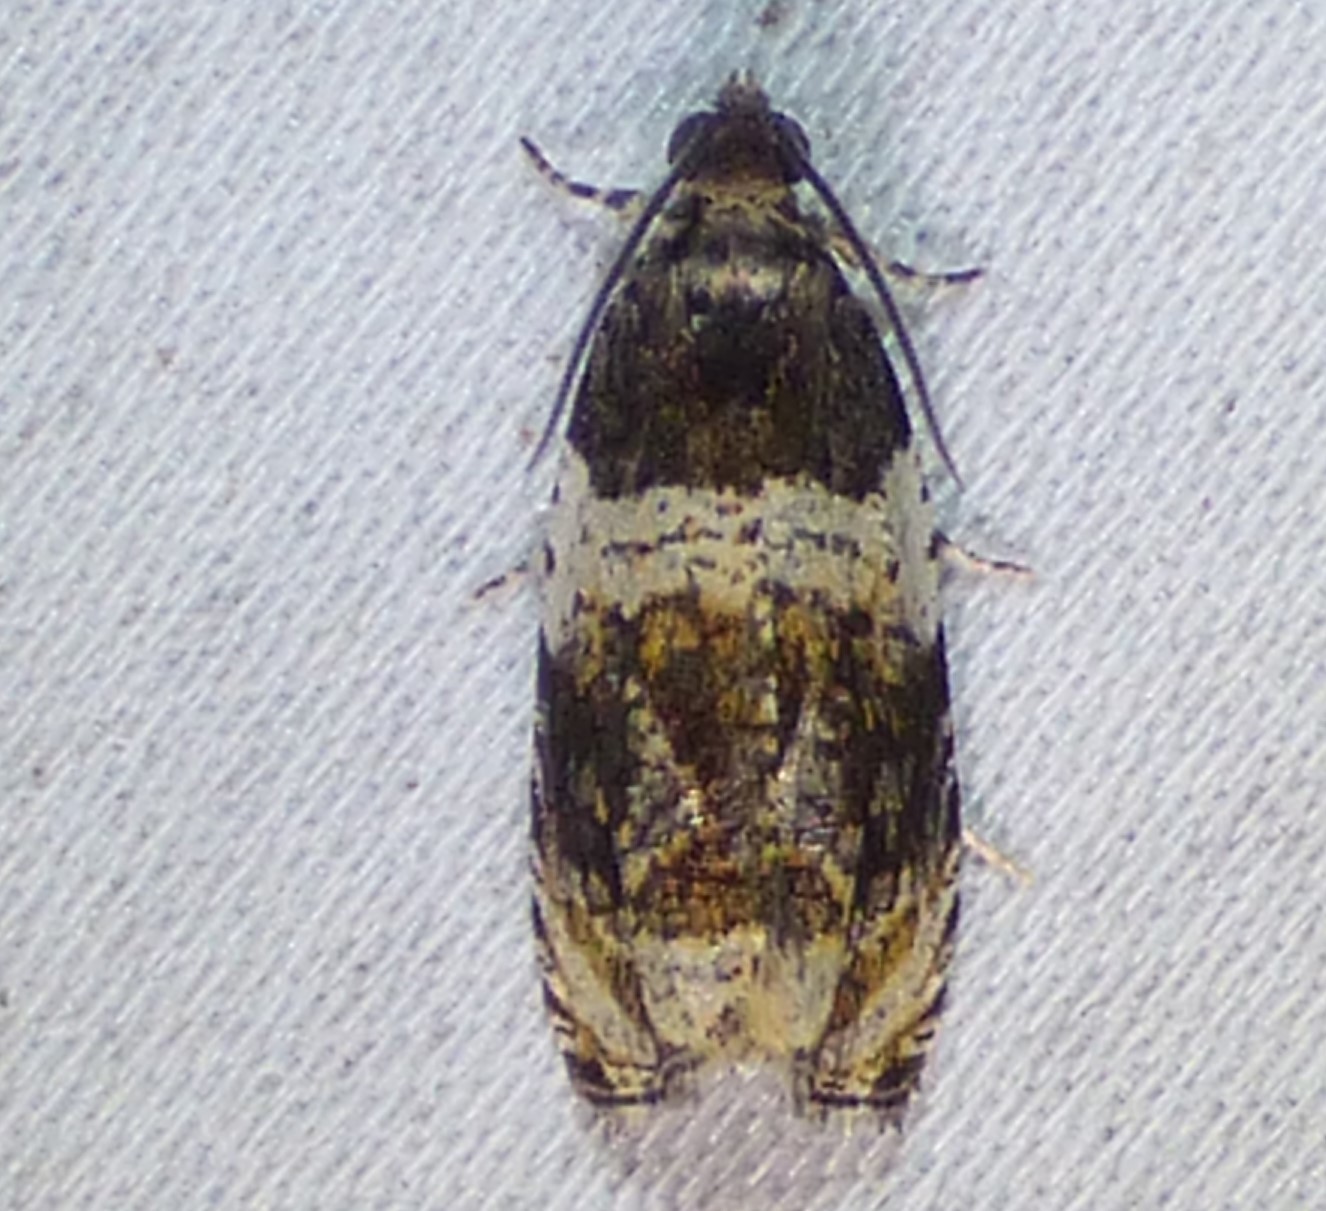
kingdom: Animalia
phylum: Arthropoda
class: Insecta
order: Lepidoptera
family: Tortricidae
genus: Olethreutes
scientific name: Olethreutes fasciatana
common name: Banded olethreutes moth
